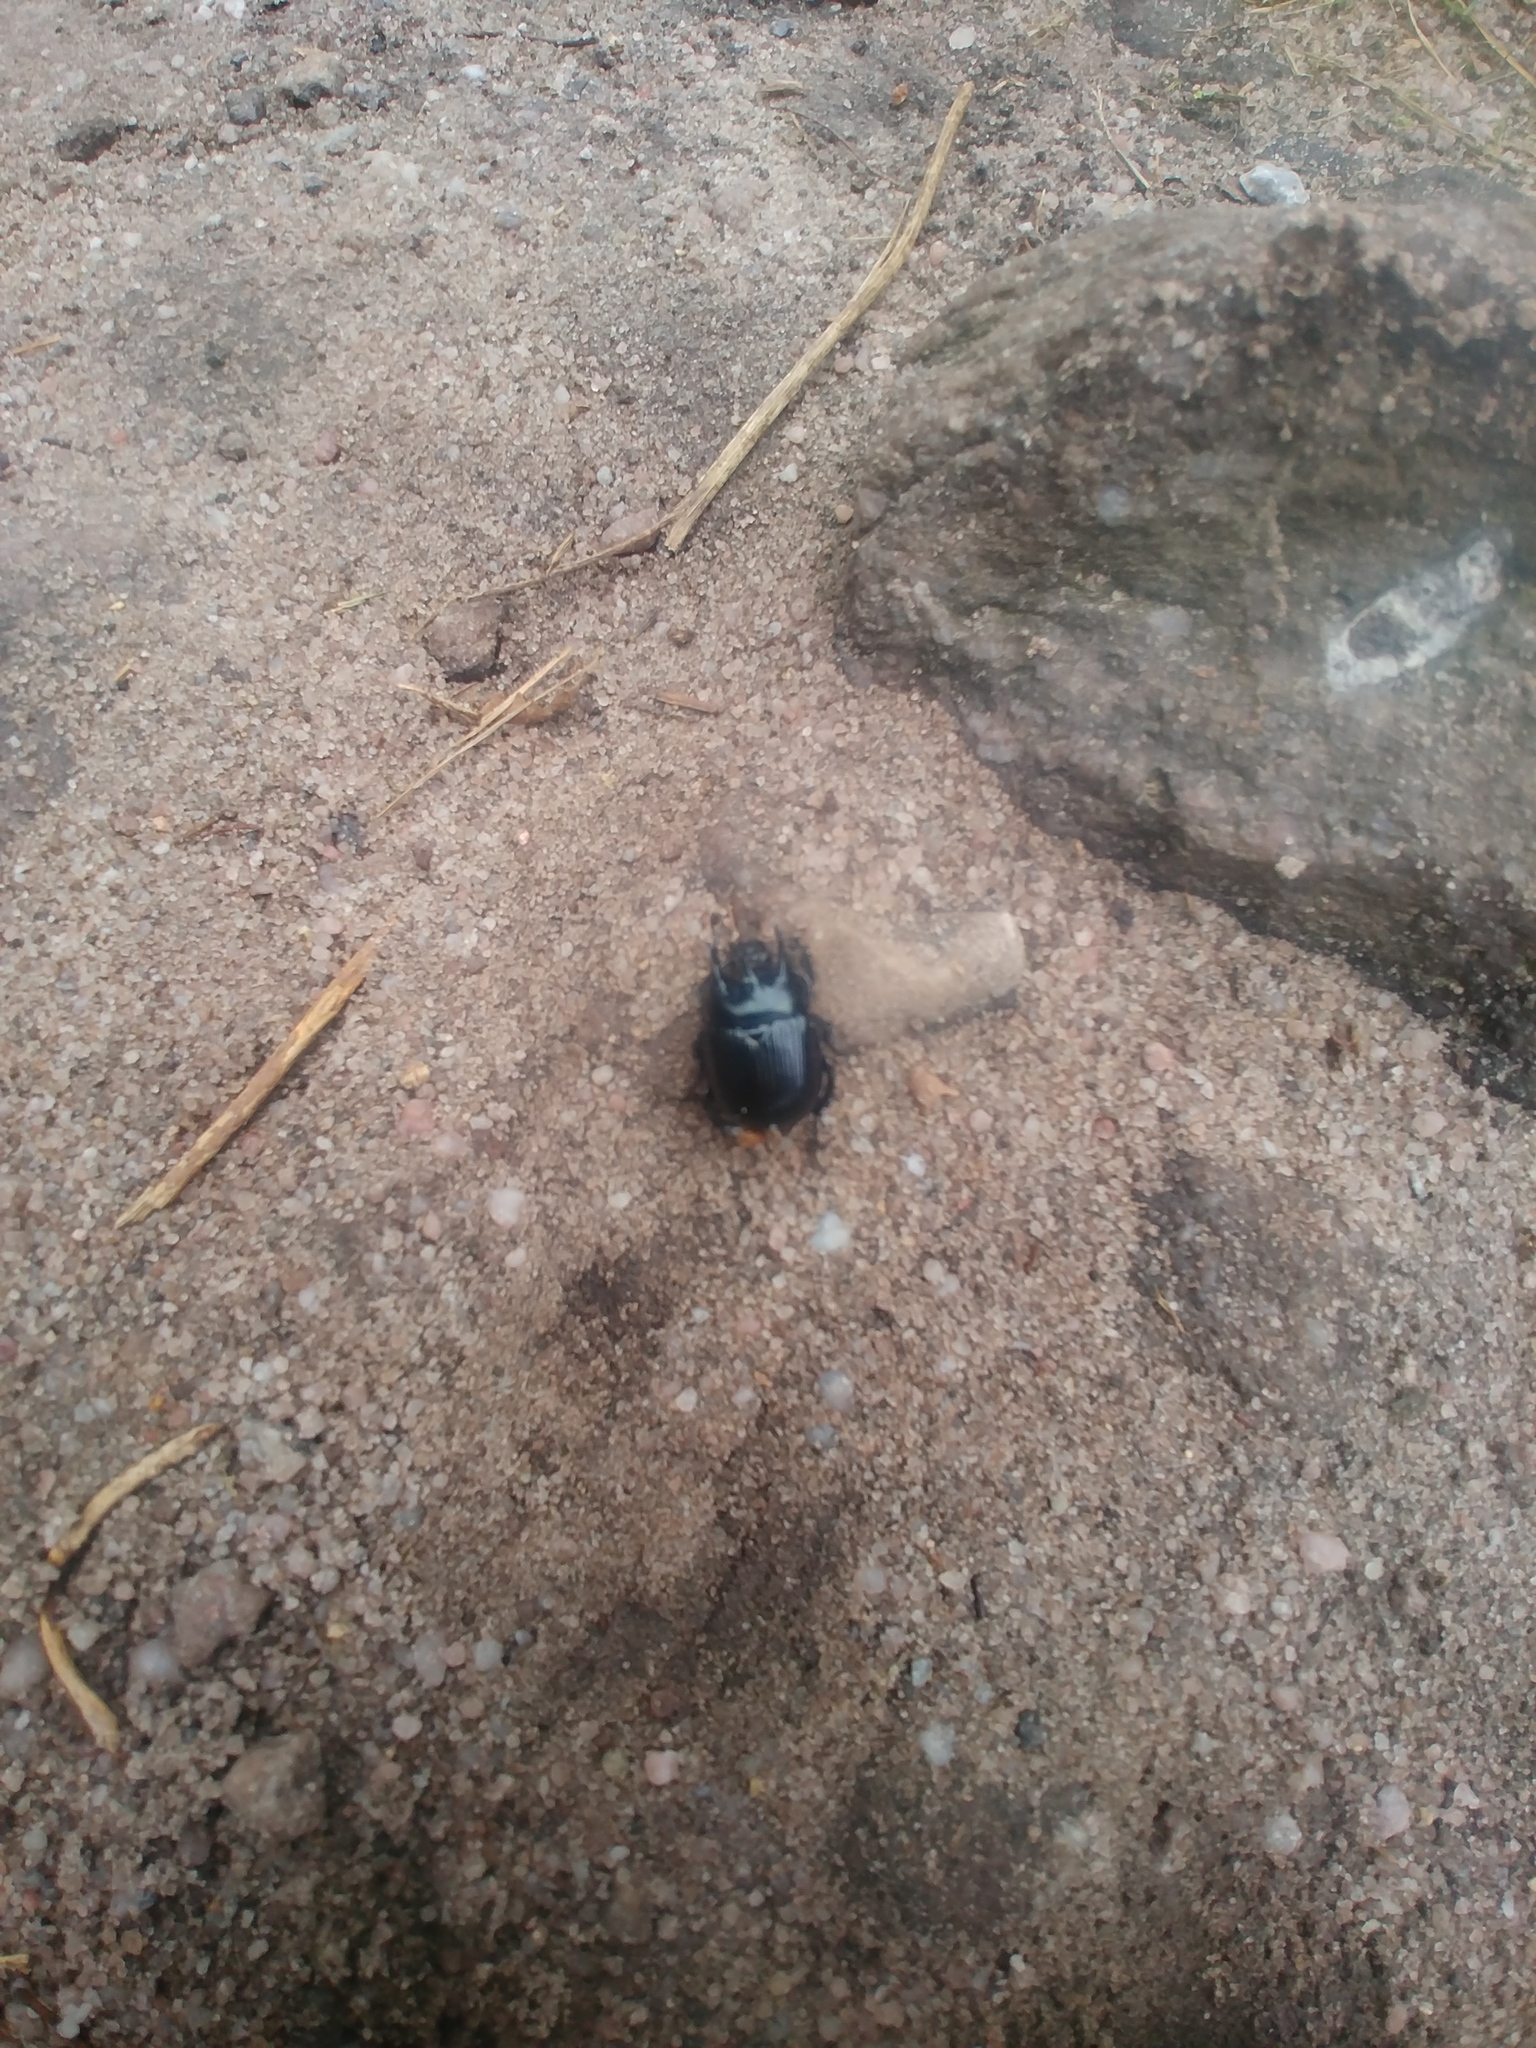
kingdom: Animalia
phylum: Arthropoda
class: Insecta
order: Coleoptera
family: Geotrupidae
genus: Typhaeus
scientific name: Typhaeus typhoeus
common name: Minotaur beetle
